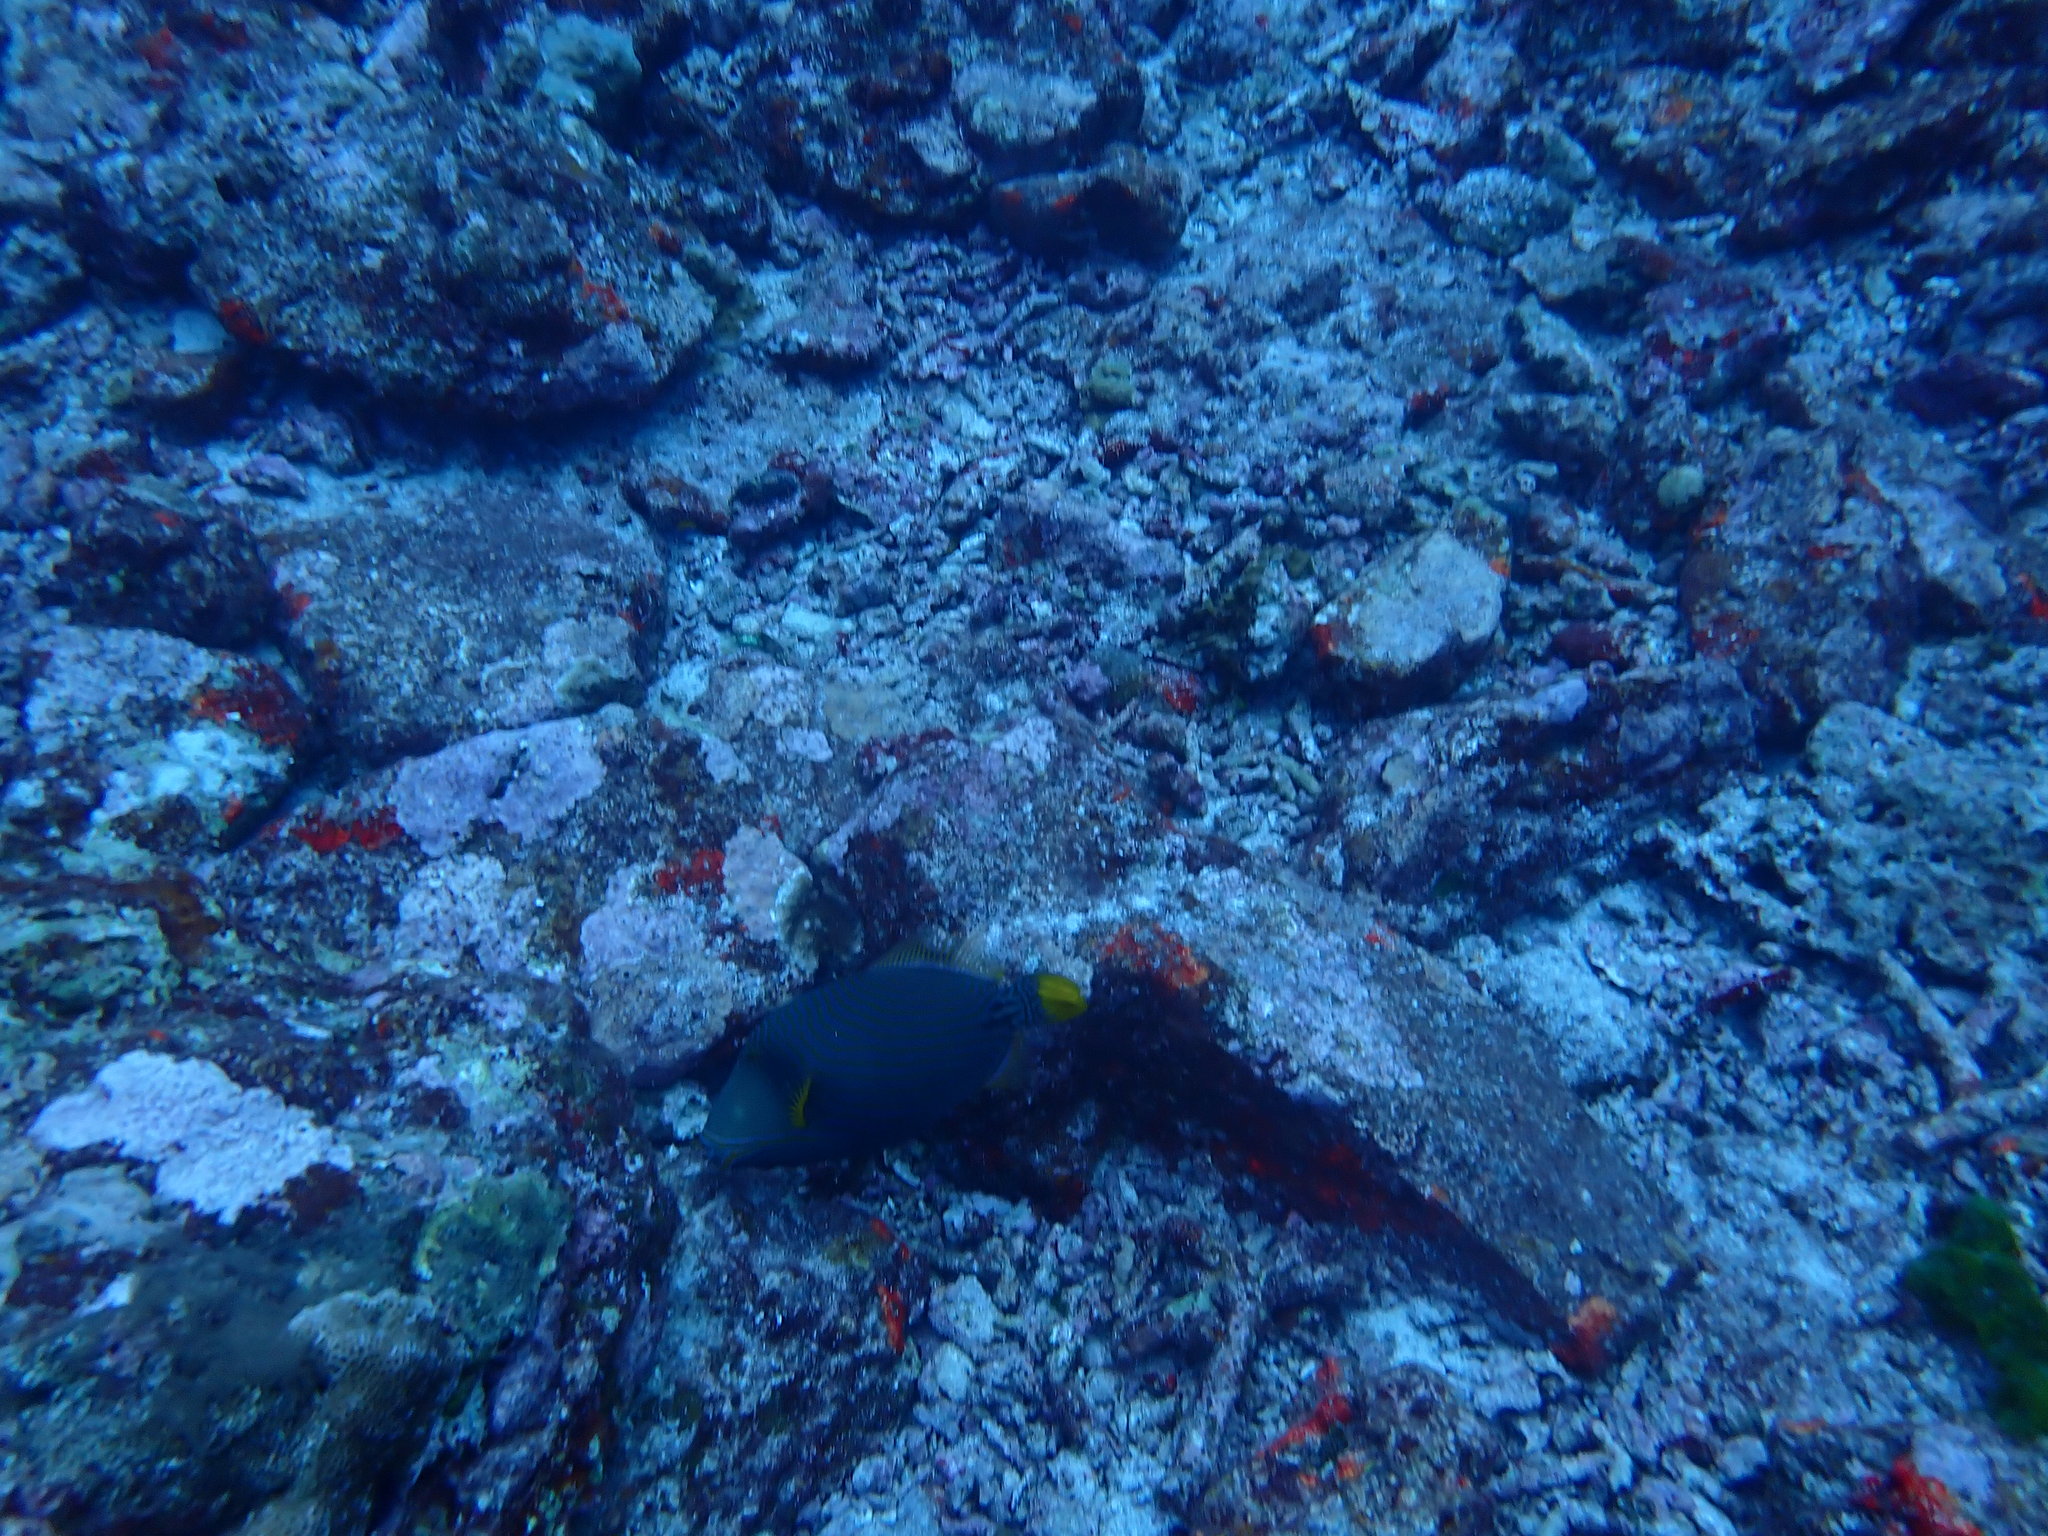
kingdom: Animalia
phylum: Chordata
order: Tetraodontiformes
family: Balistidae
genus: Balistapus
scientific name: Balistapus undulatus
